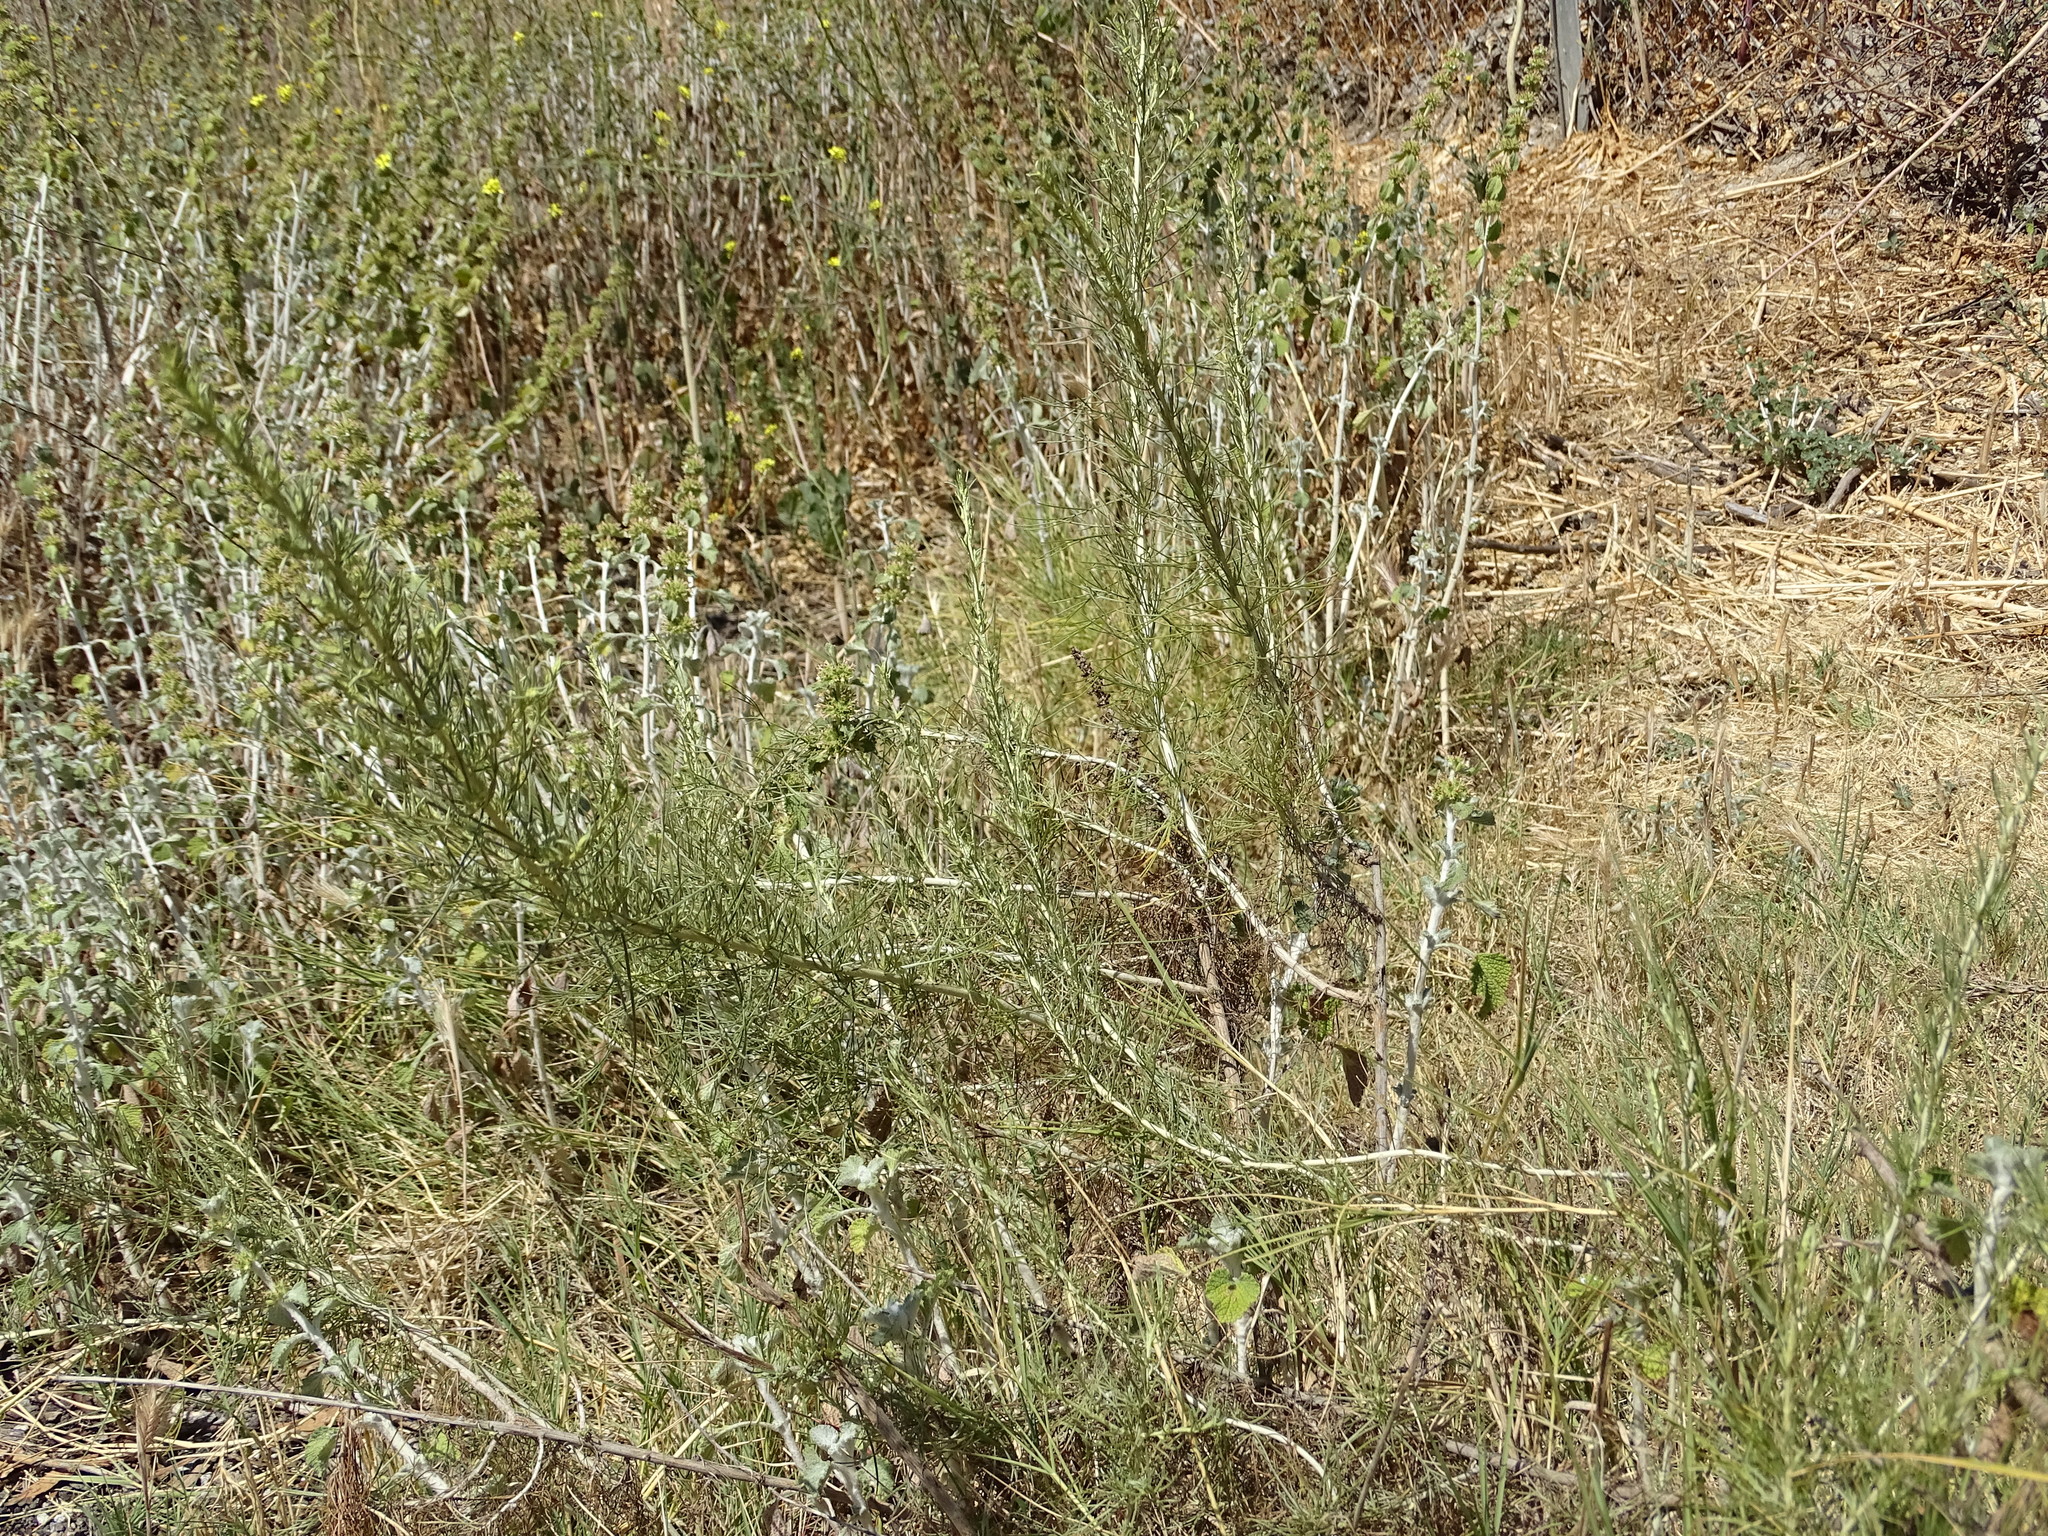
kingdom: Plantae
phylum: Tracheophyta
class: Magnoliopsida
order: Asterales
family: Asteraceae
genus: Artemisia
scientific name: Artemisia californica
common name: California sagebrush
